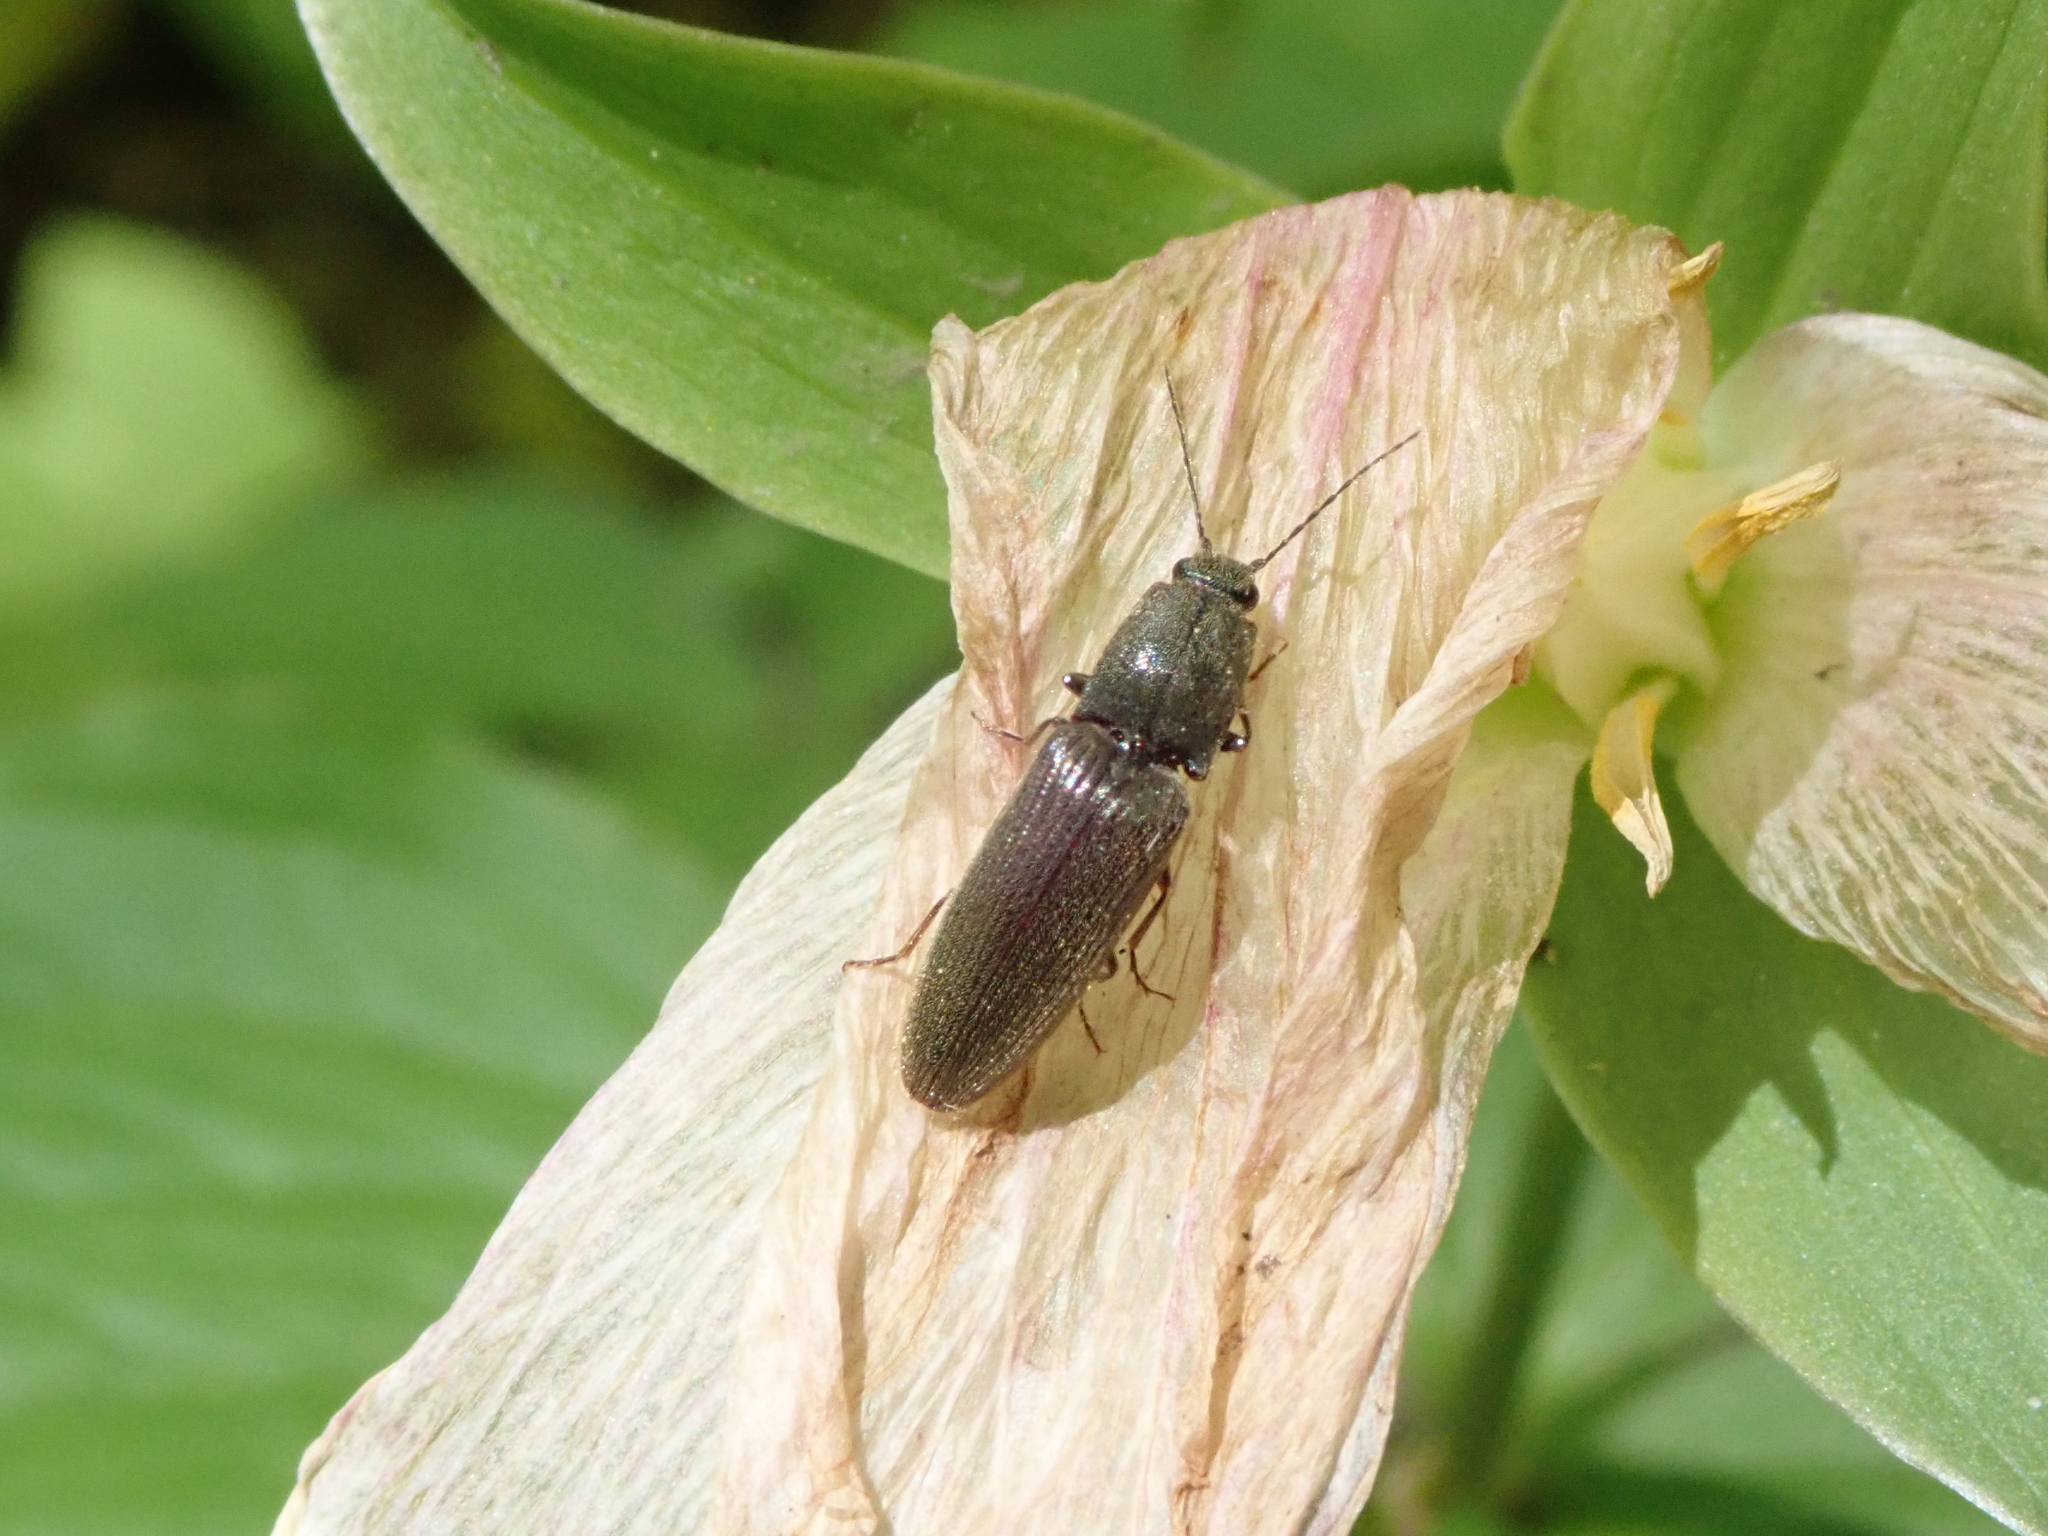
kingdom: Animalia
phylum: Arthropoda
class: Insecta
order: Coleoptera
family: Elateridae
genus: Athous
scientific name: Athous haemorrhoidalis
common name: Red-brown click beetle
